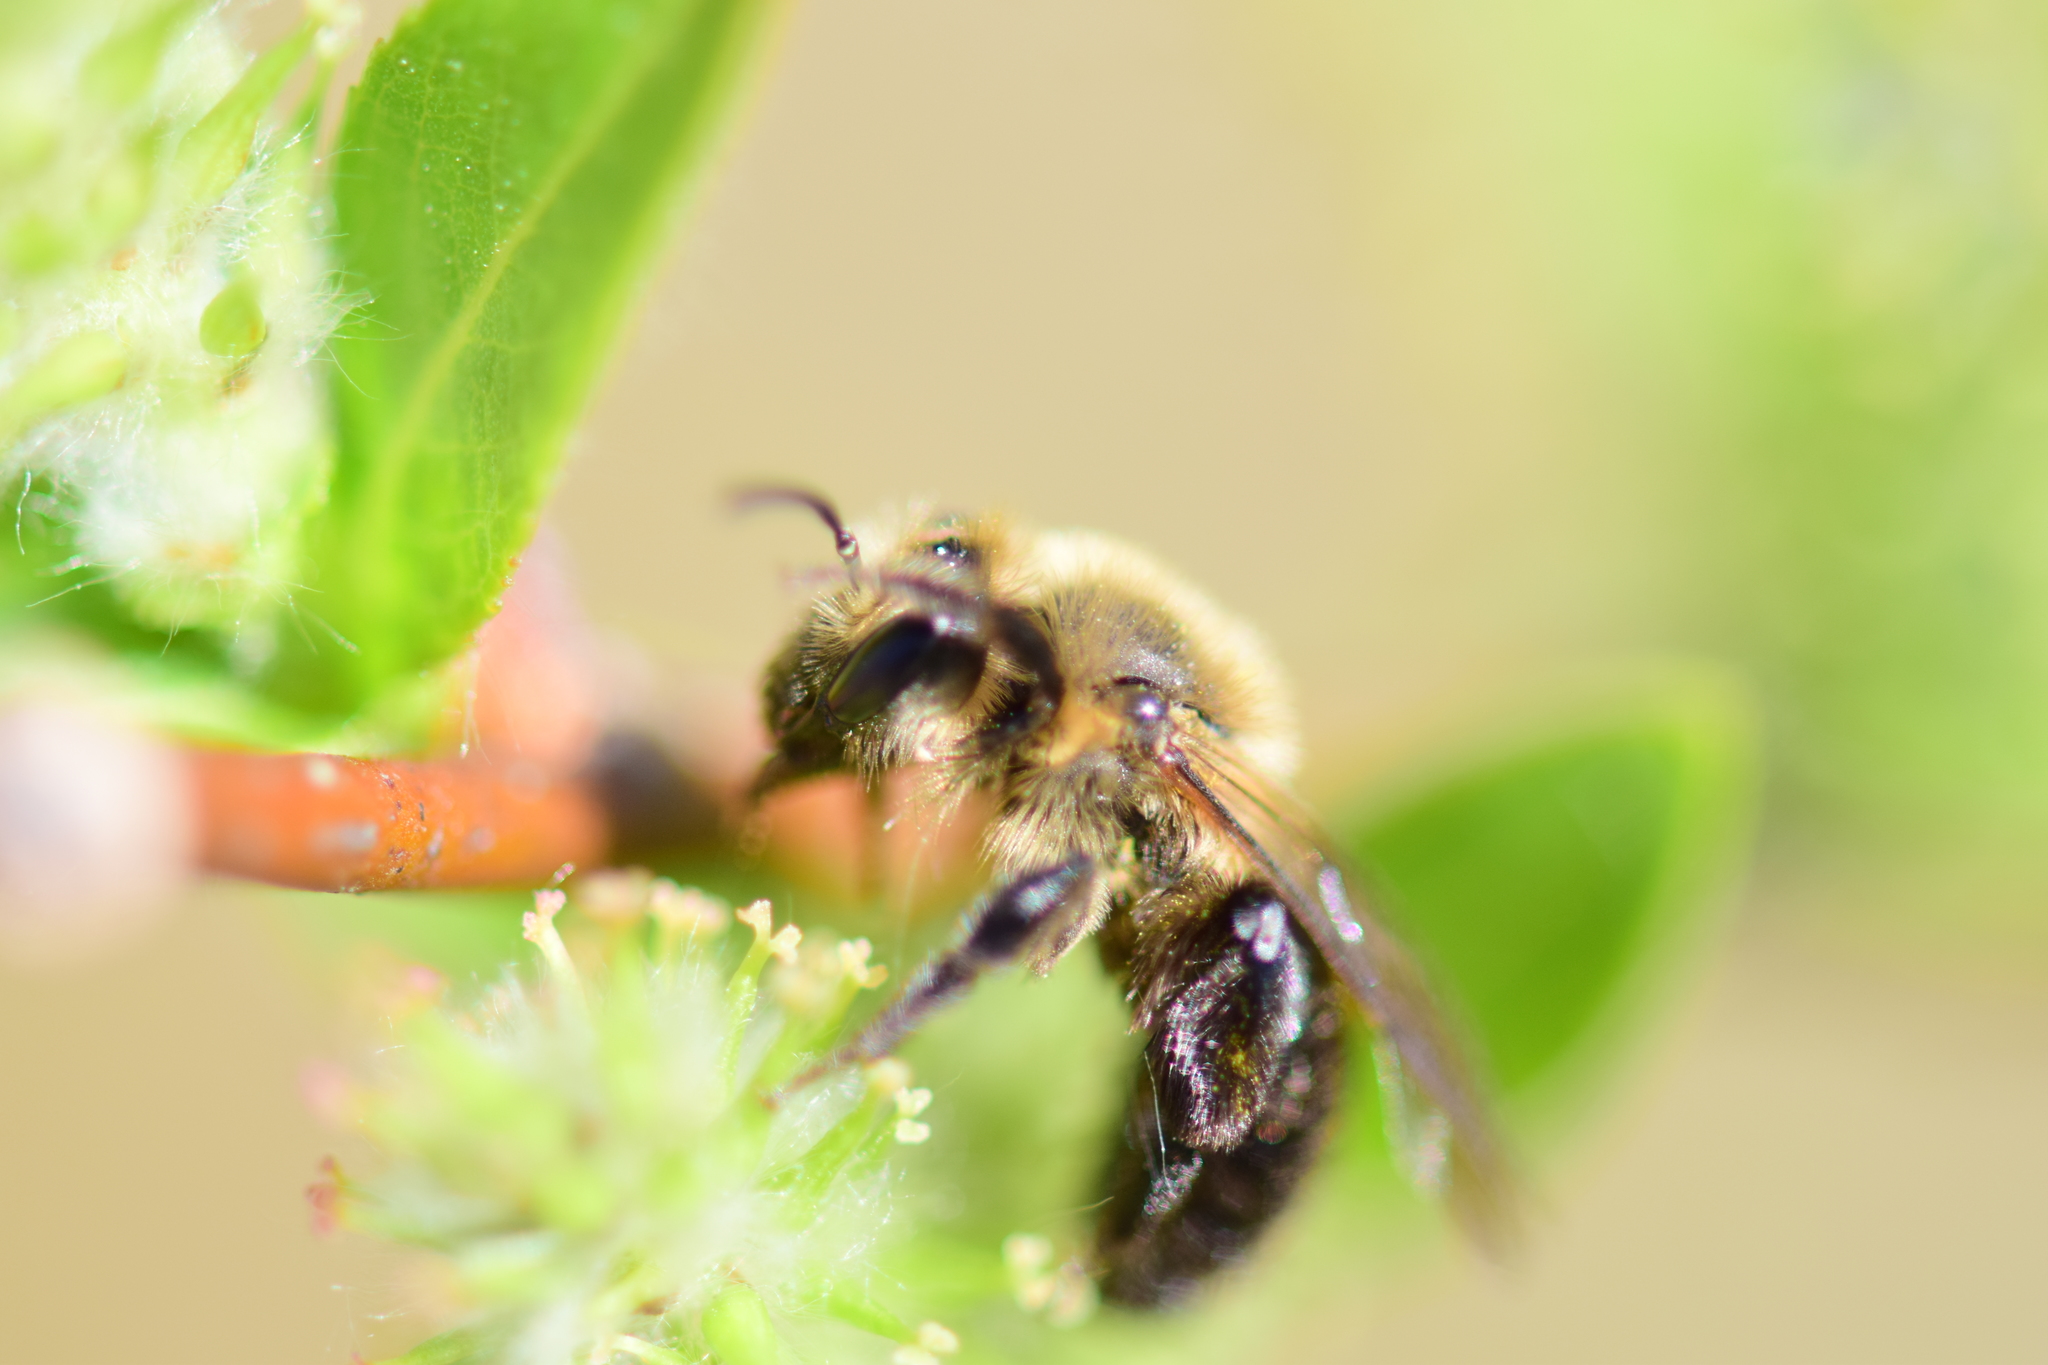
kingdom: Animalia
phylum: Arthropoda
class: Insecta
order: Hymenoptera
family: Andrenidae
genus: Andrena
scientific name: Andrena vicina
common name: Neighborly mining bee
